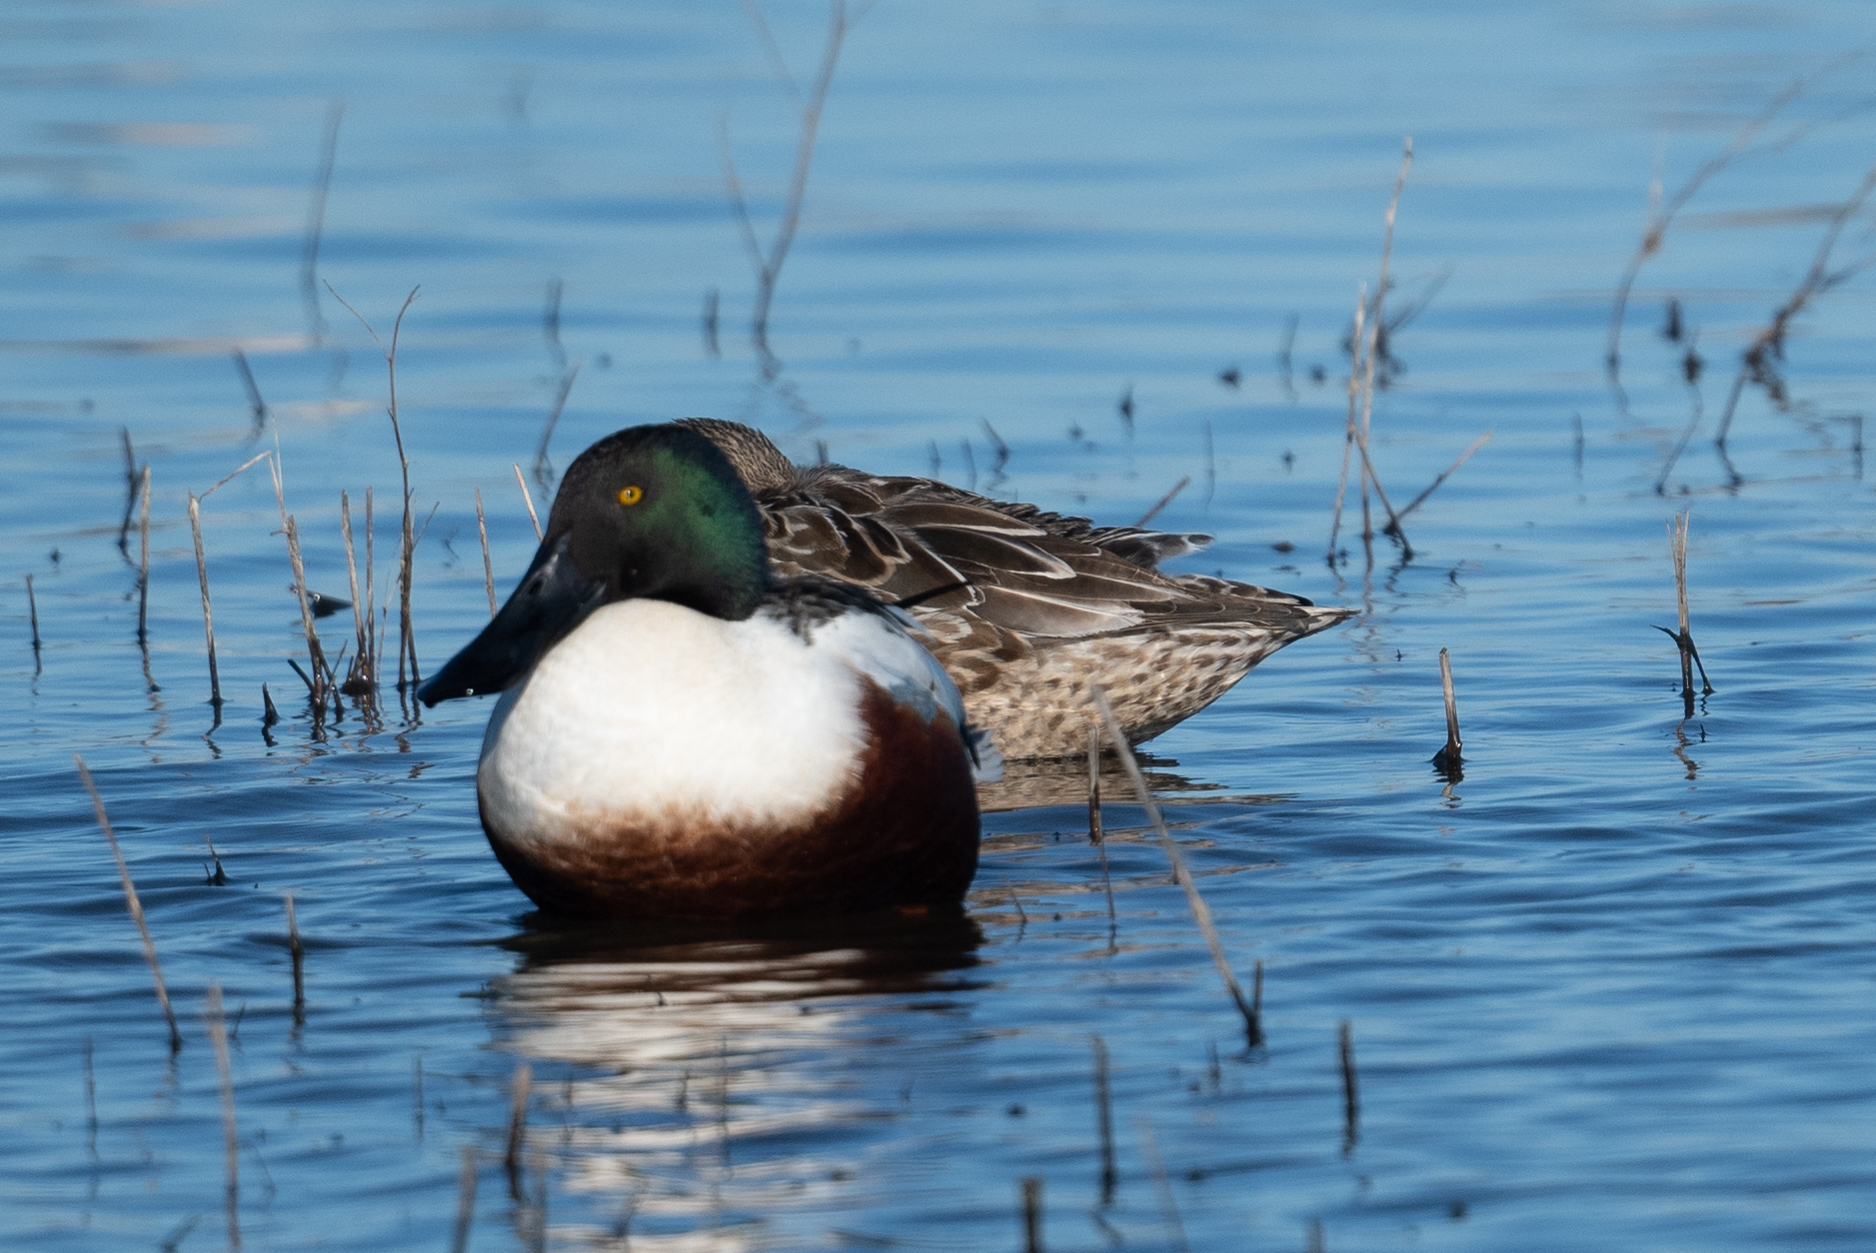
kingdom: Animalia
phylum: Chordata
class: Aves
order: Anseriformes
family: Anatidae
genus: Spatula
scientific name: Spatula clypeata
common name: Northern shoveler
